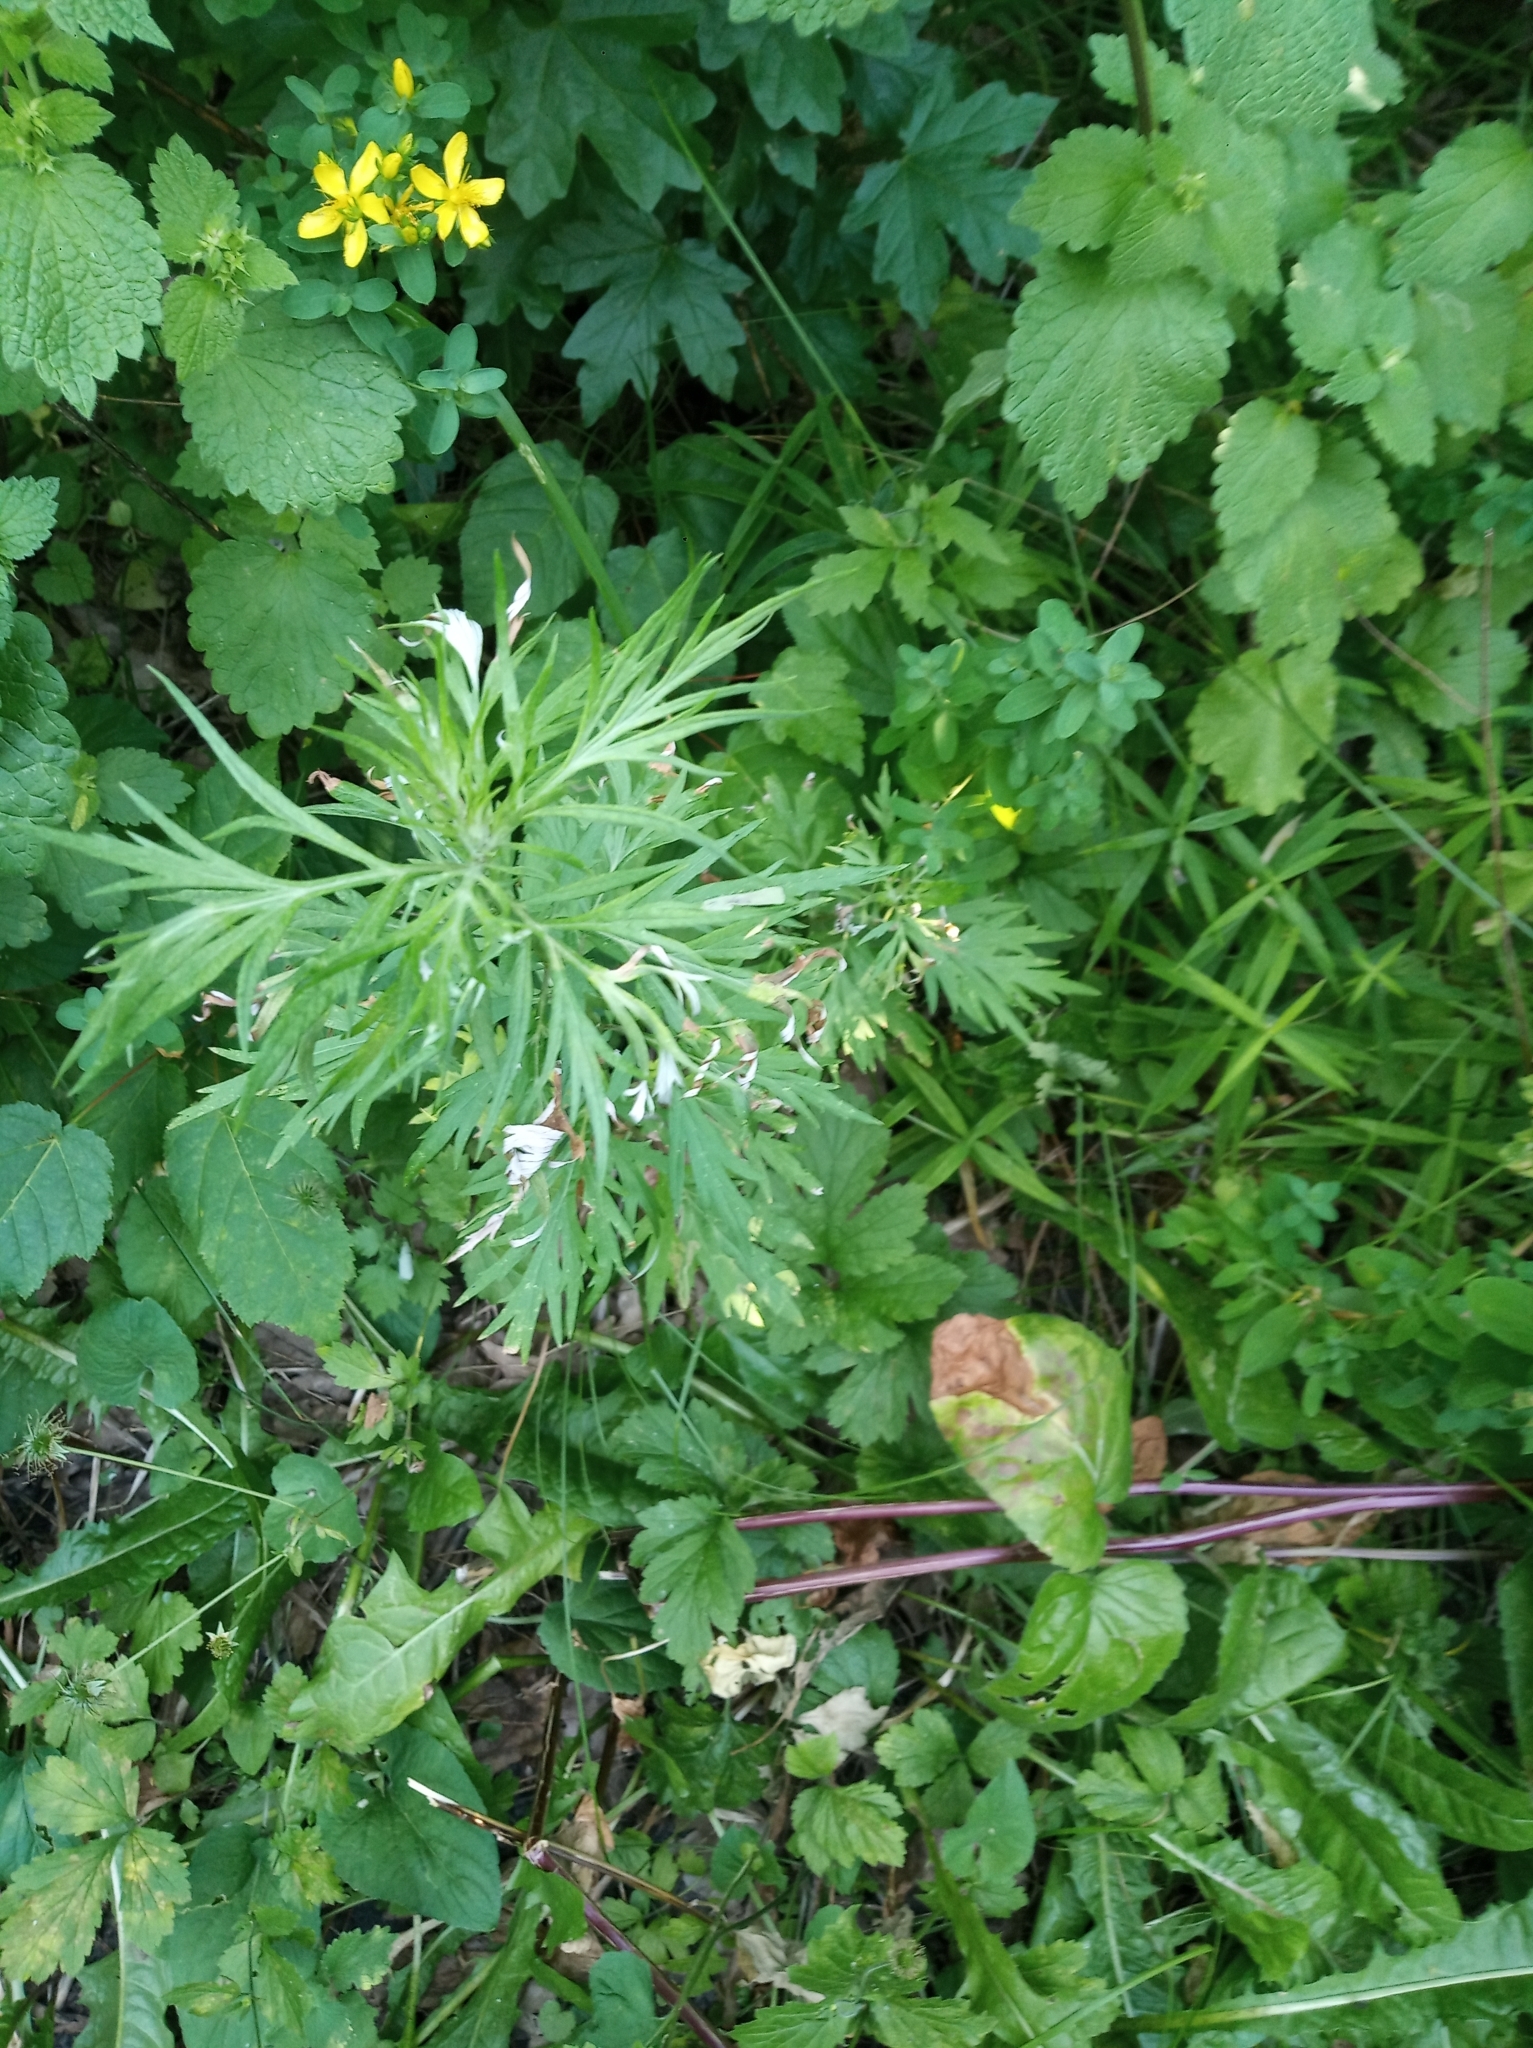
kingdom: Plantae
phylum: Tracheophyta
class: Magnoliopsida
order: Asterales
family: Asteraceae
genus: Artemisia
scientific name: Artemisia vulgaris
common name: Mugwort
